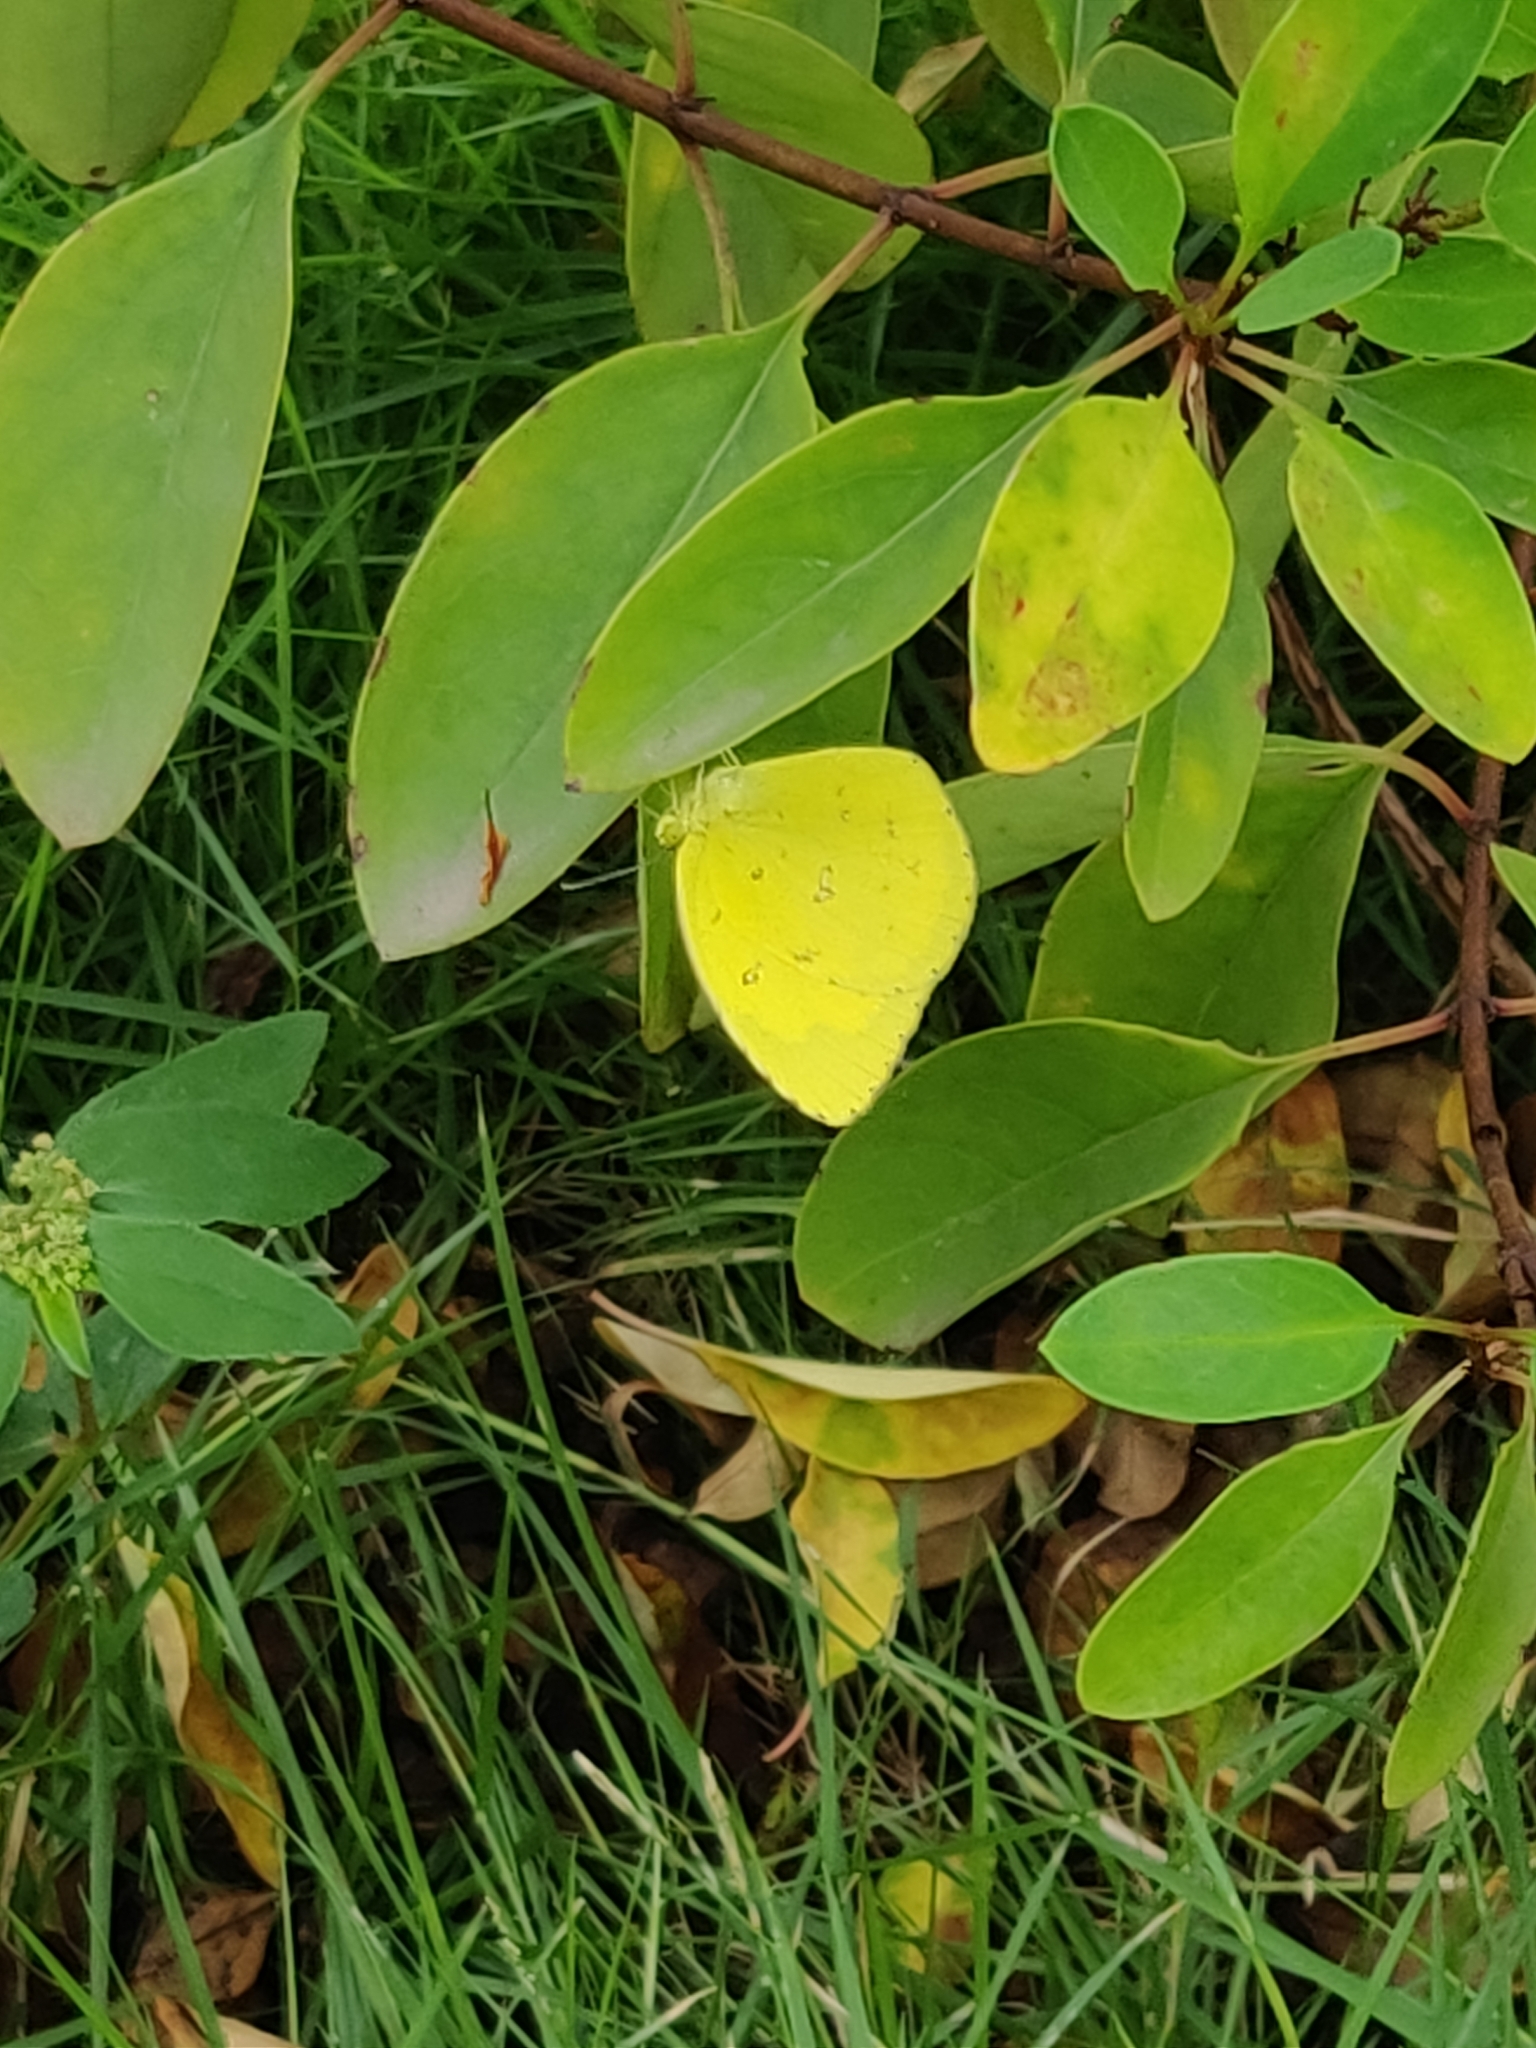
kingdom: Animalia
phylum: Arthropoda
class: Insecta
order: Lepidoptera
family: Pieridae
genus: Eurema
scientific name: Eurema brigitta
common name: Small grass yellow
